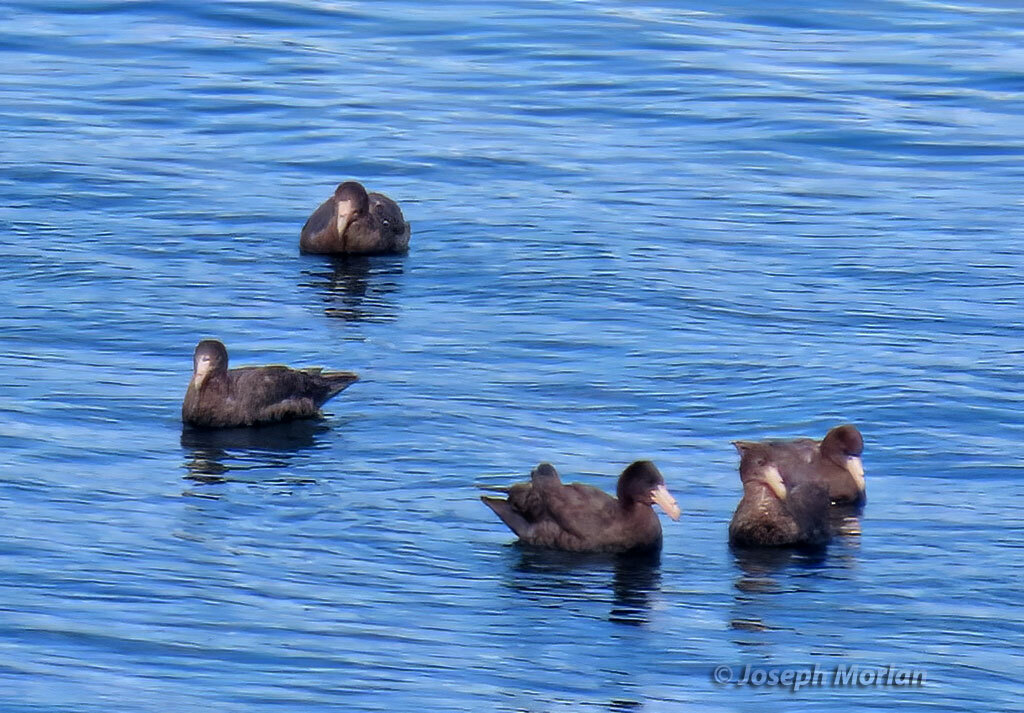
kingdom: Animalia
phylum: Chordata
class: Aves
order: Procellariiformes
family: Procellariidae
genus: Macronectes
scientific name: Macronectes giganteus
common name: Southern giant petrel
